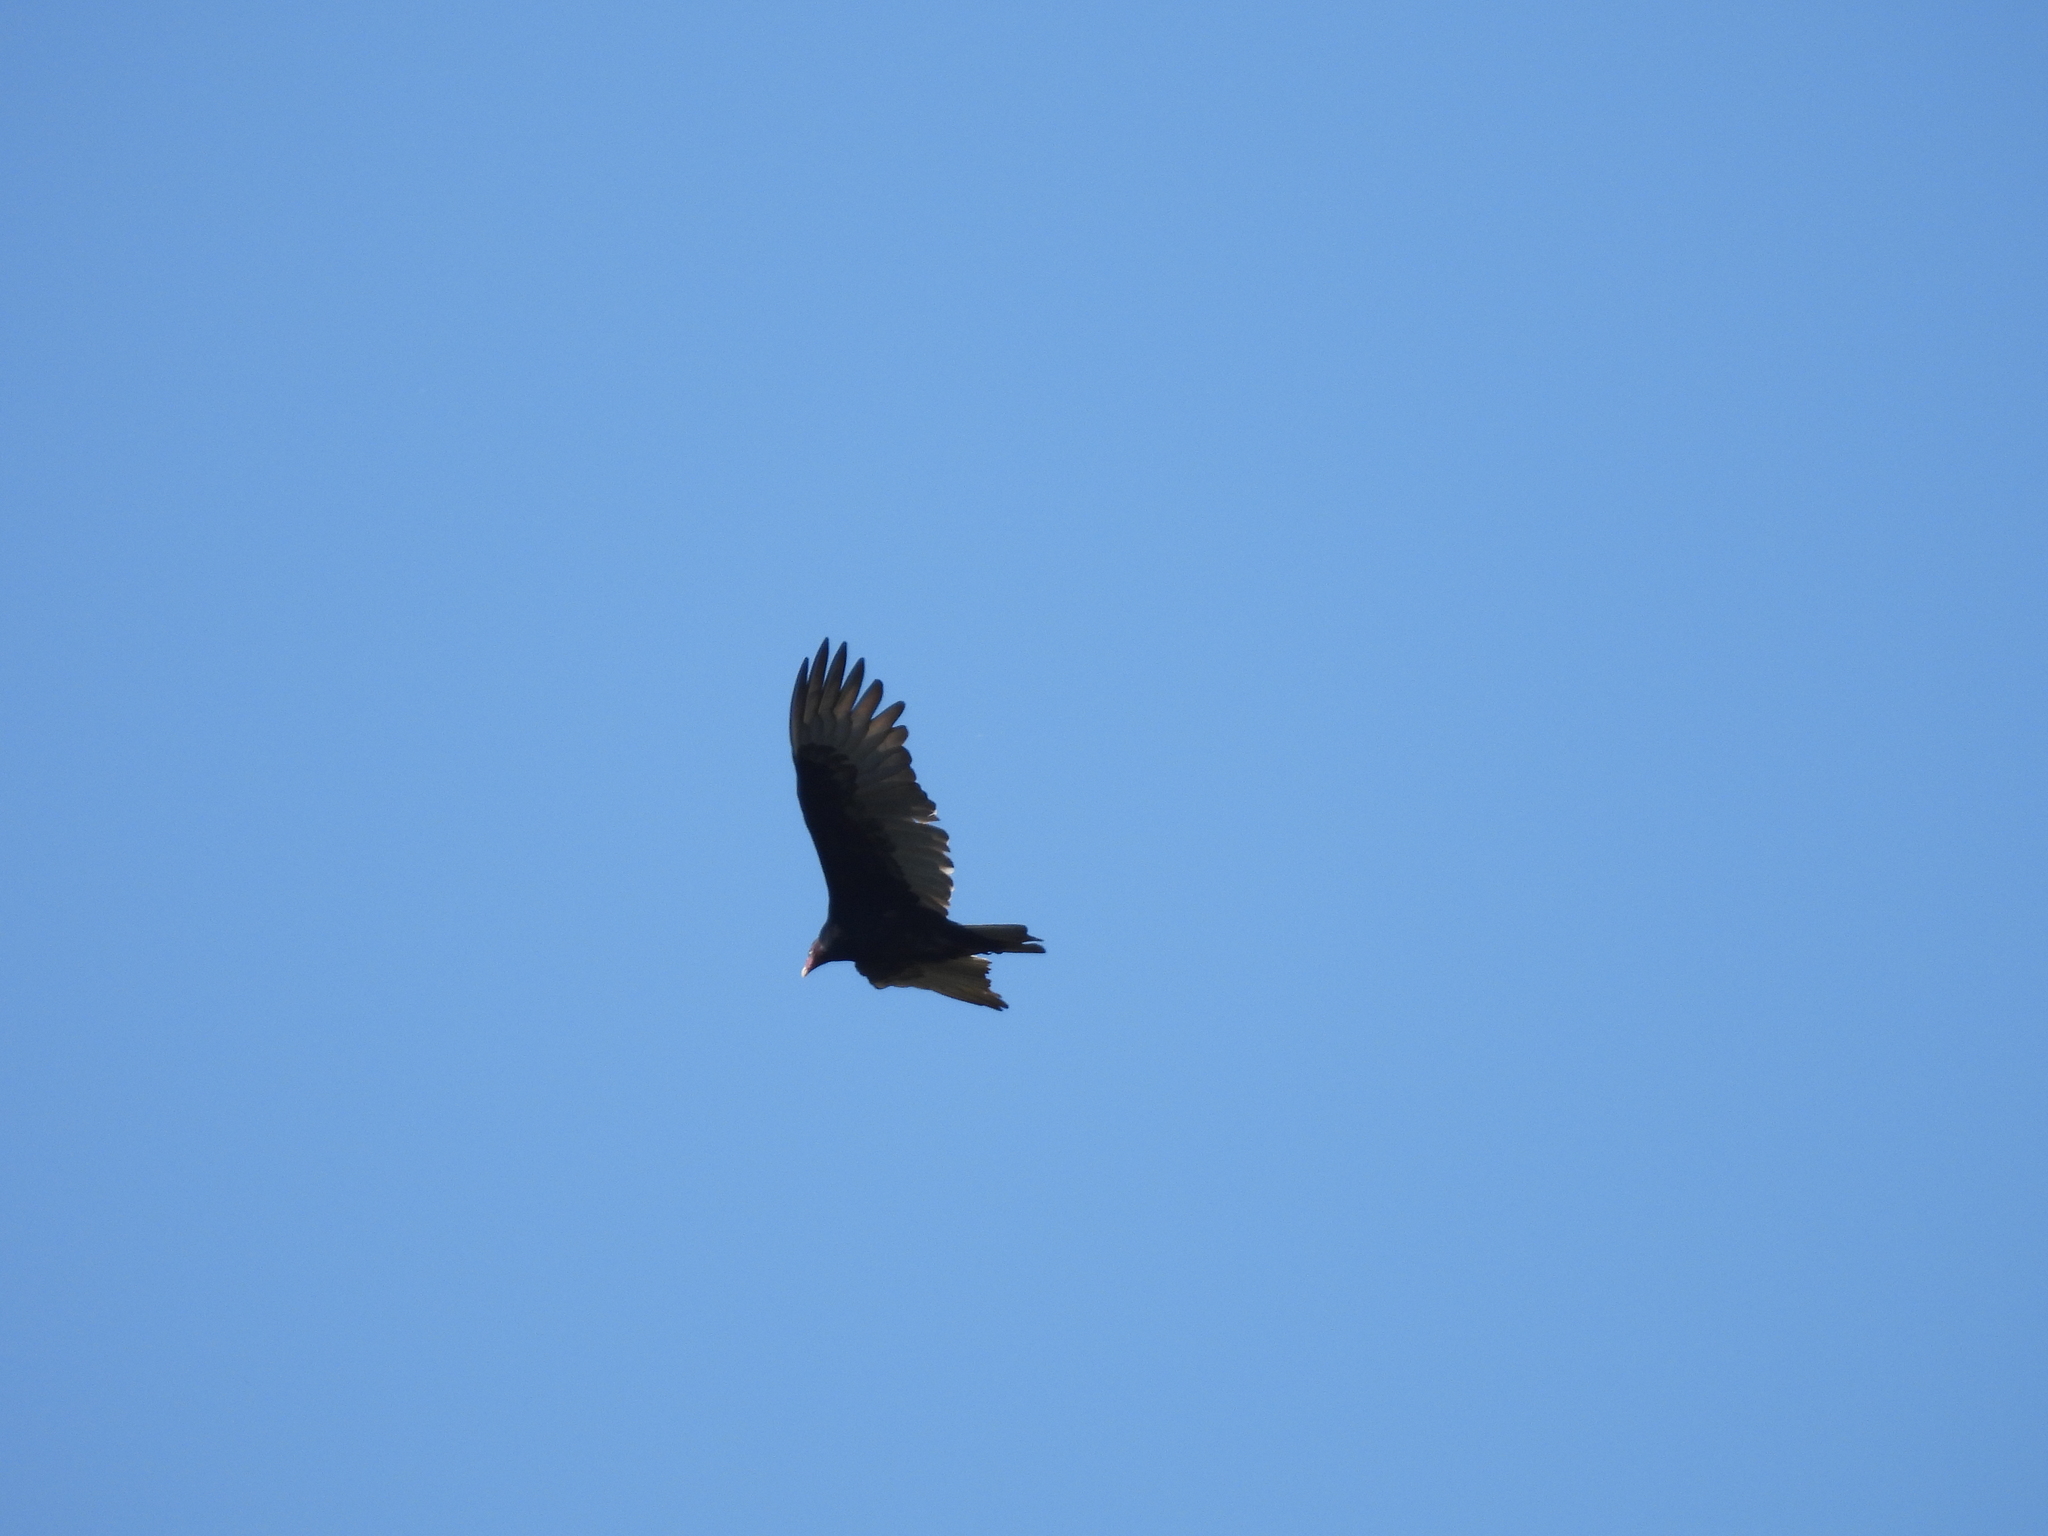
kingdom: Animalia
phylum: Chordata
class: Aves
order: Accipitriformes
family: Cathartidae
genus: Cathartes
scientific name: Cathartes aura
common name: Turkey vulture
